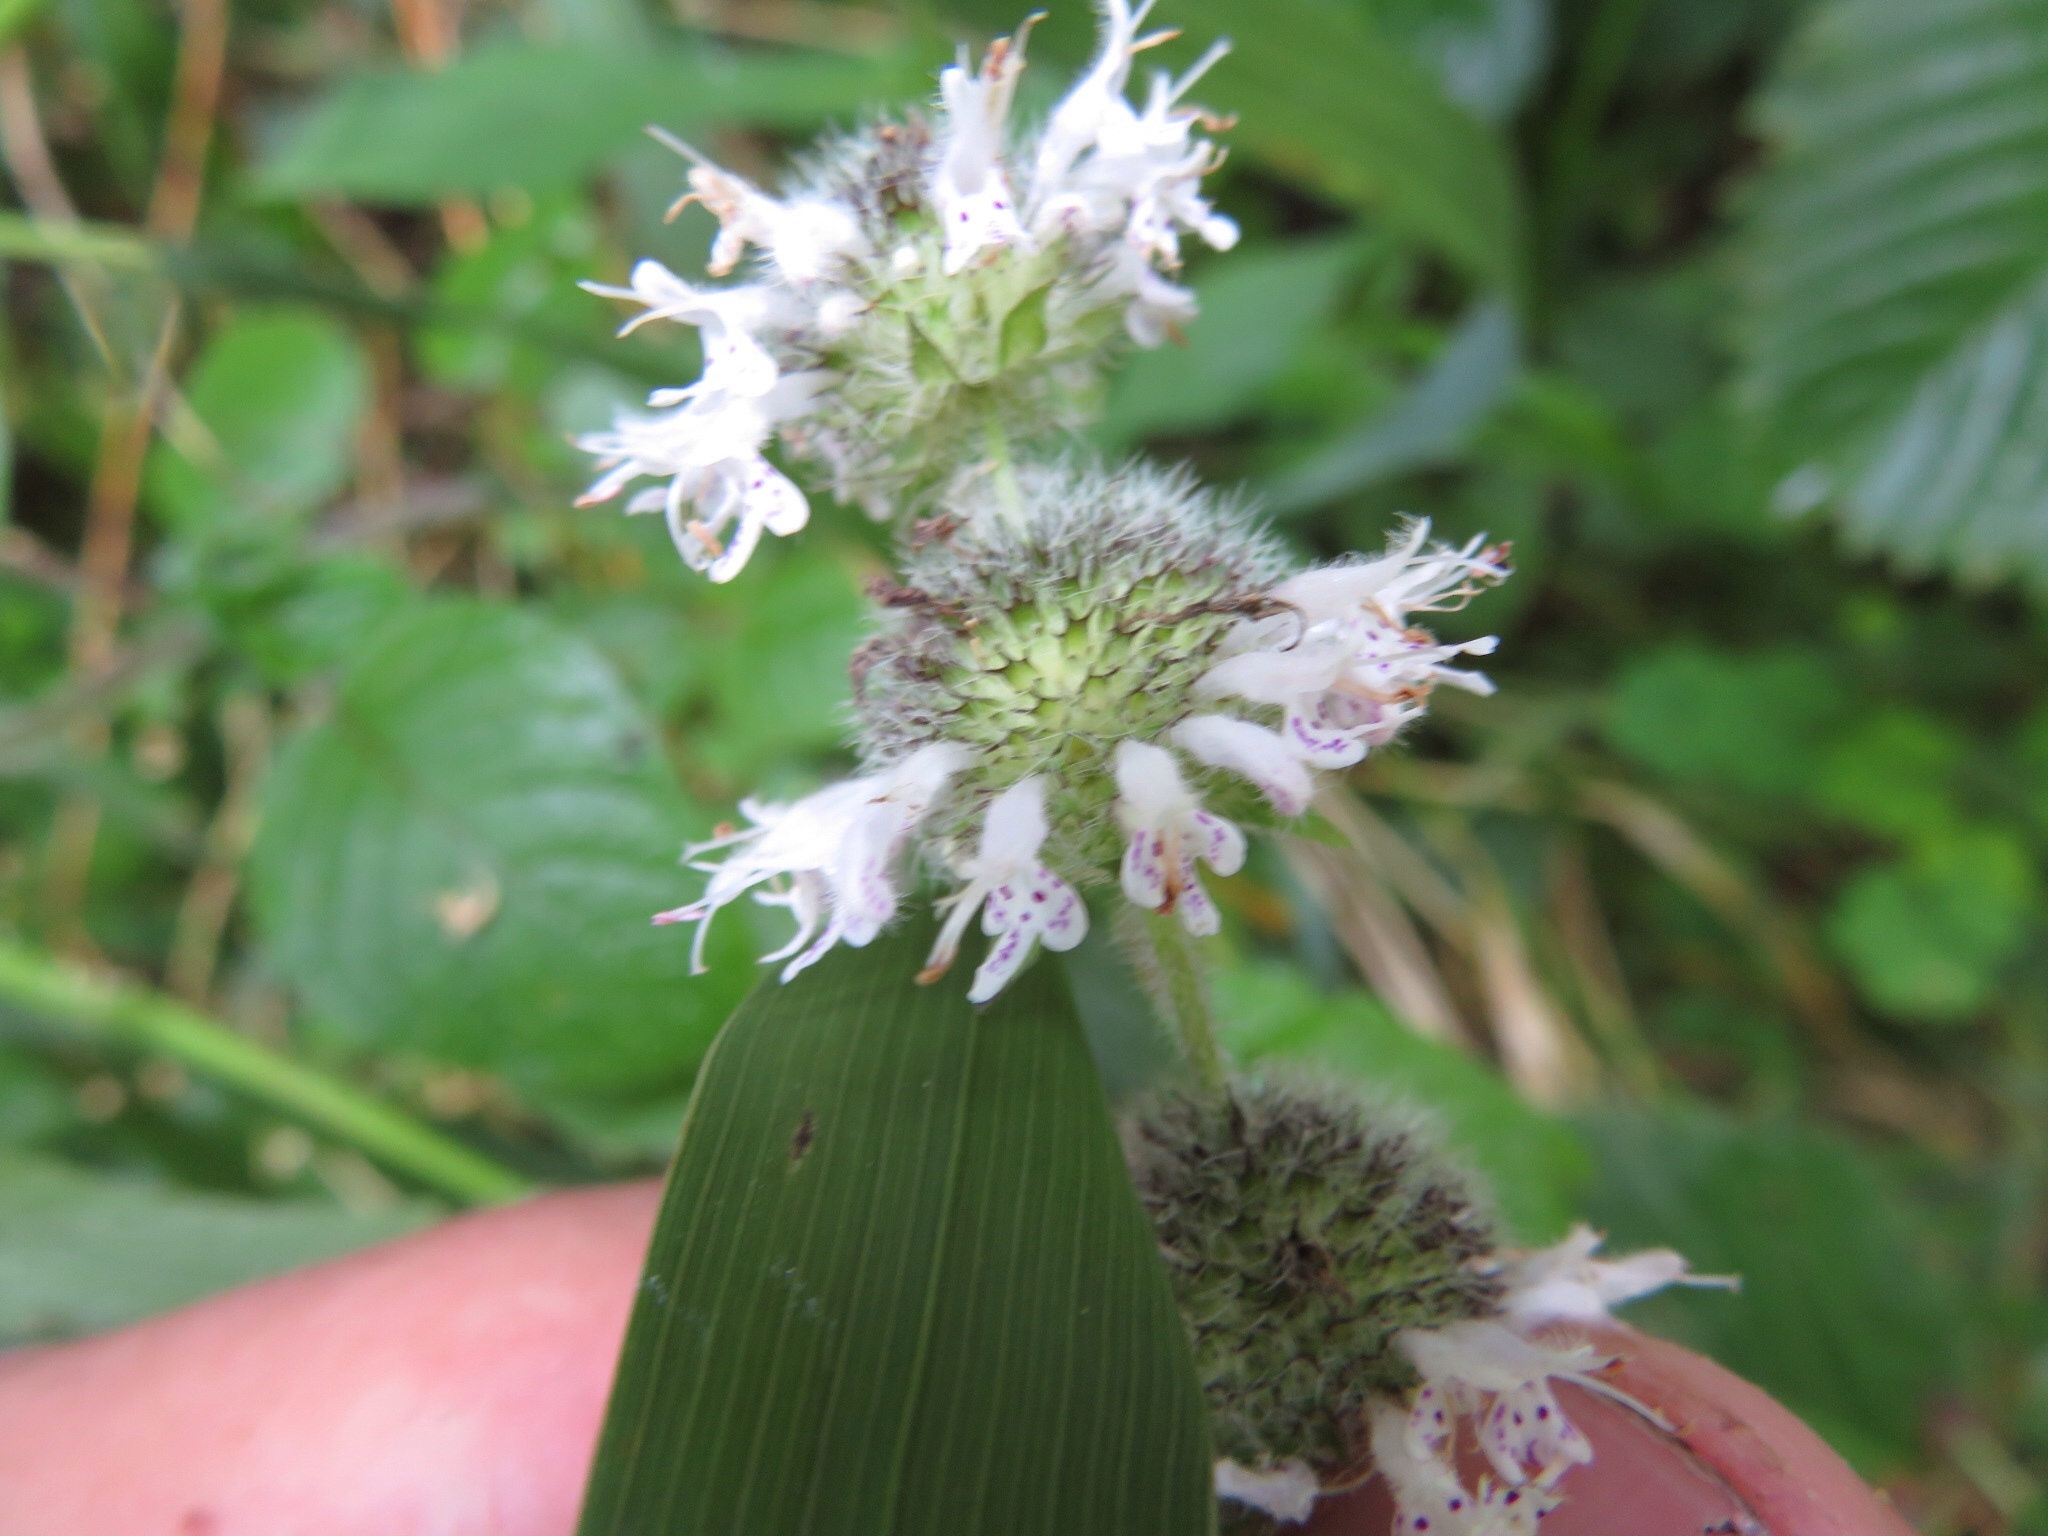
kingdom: Plantae
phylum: Tracheophyta
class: Magnoliopsida
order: Lamiales
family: Lamiaceae
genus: Blephilia
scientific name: Blephilia hirsuta
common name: Hairy blephilia
